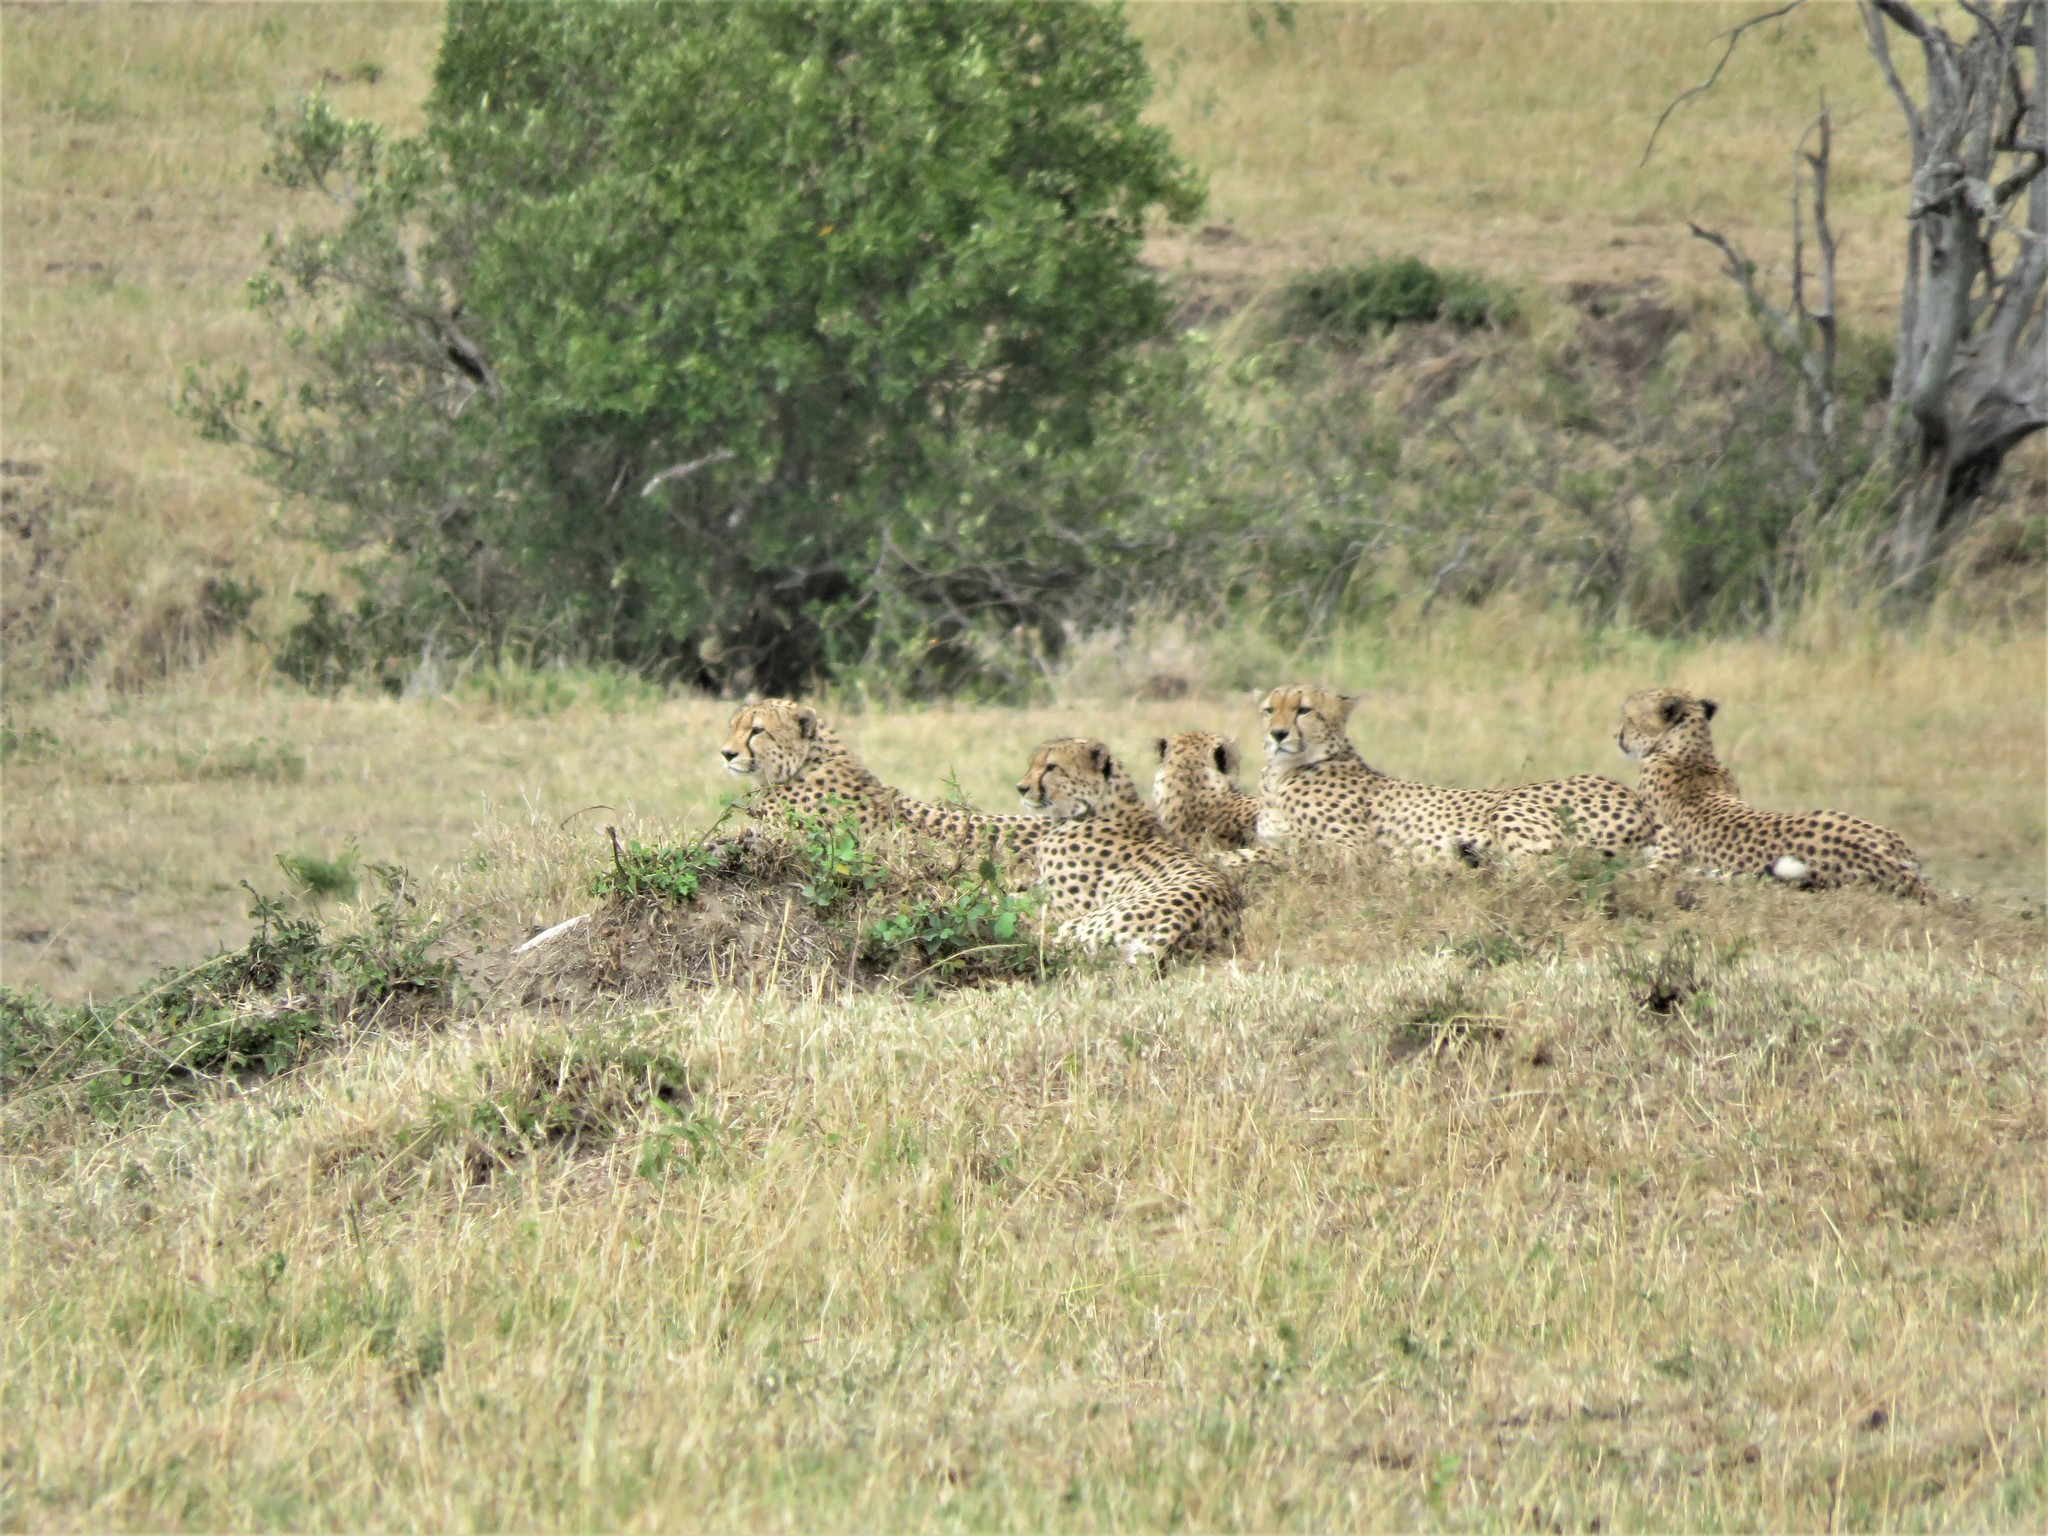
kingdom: Animalia
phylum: Chordata
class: Mammalia
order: Carnivora
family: Felidae
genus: Acinonyx
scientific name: Acinonyx jubatus
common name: Cheetah
